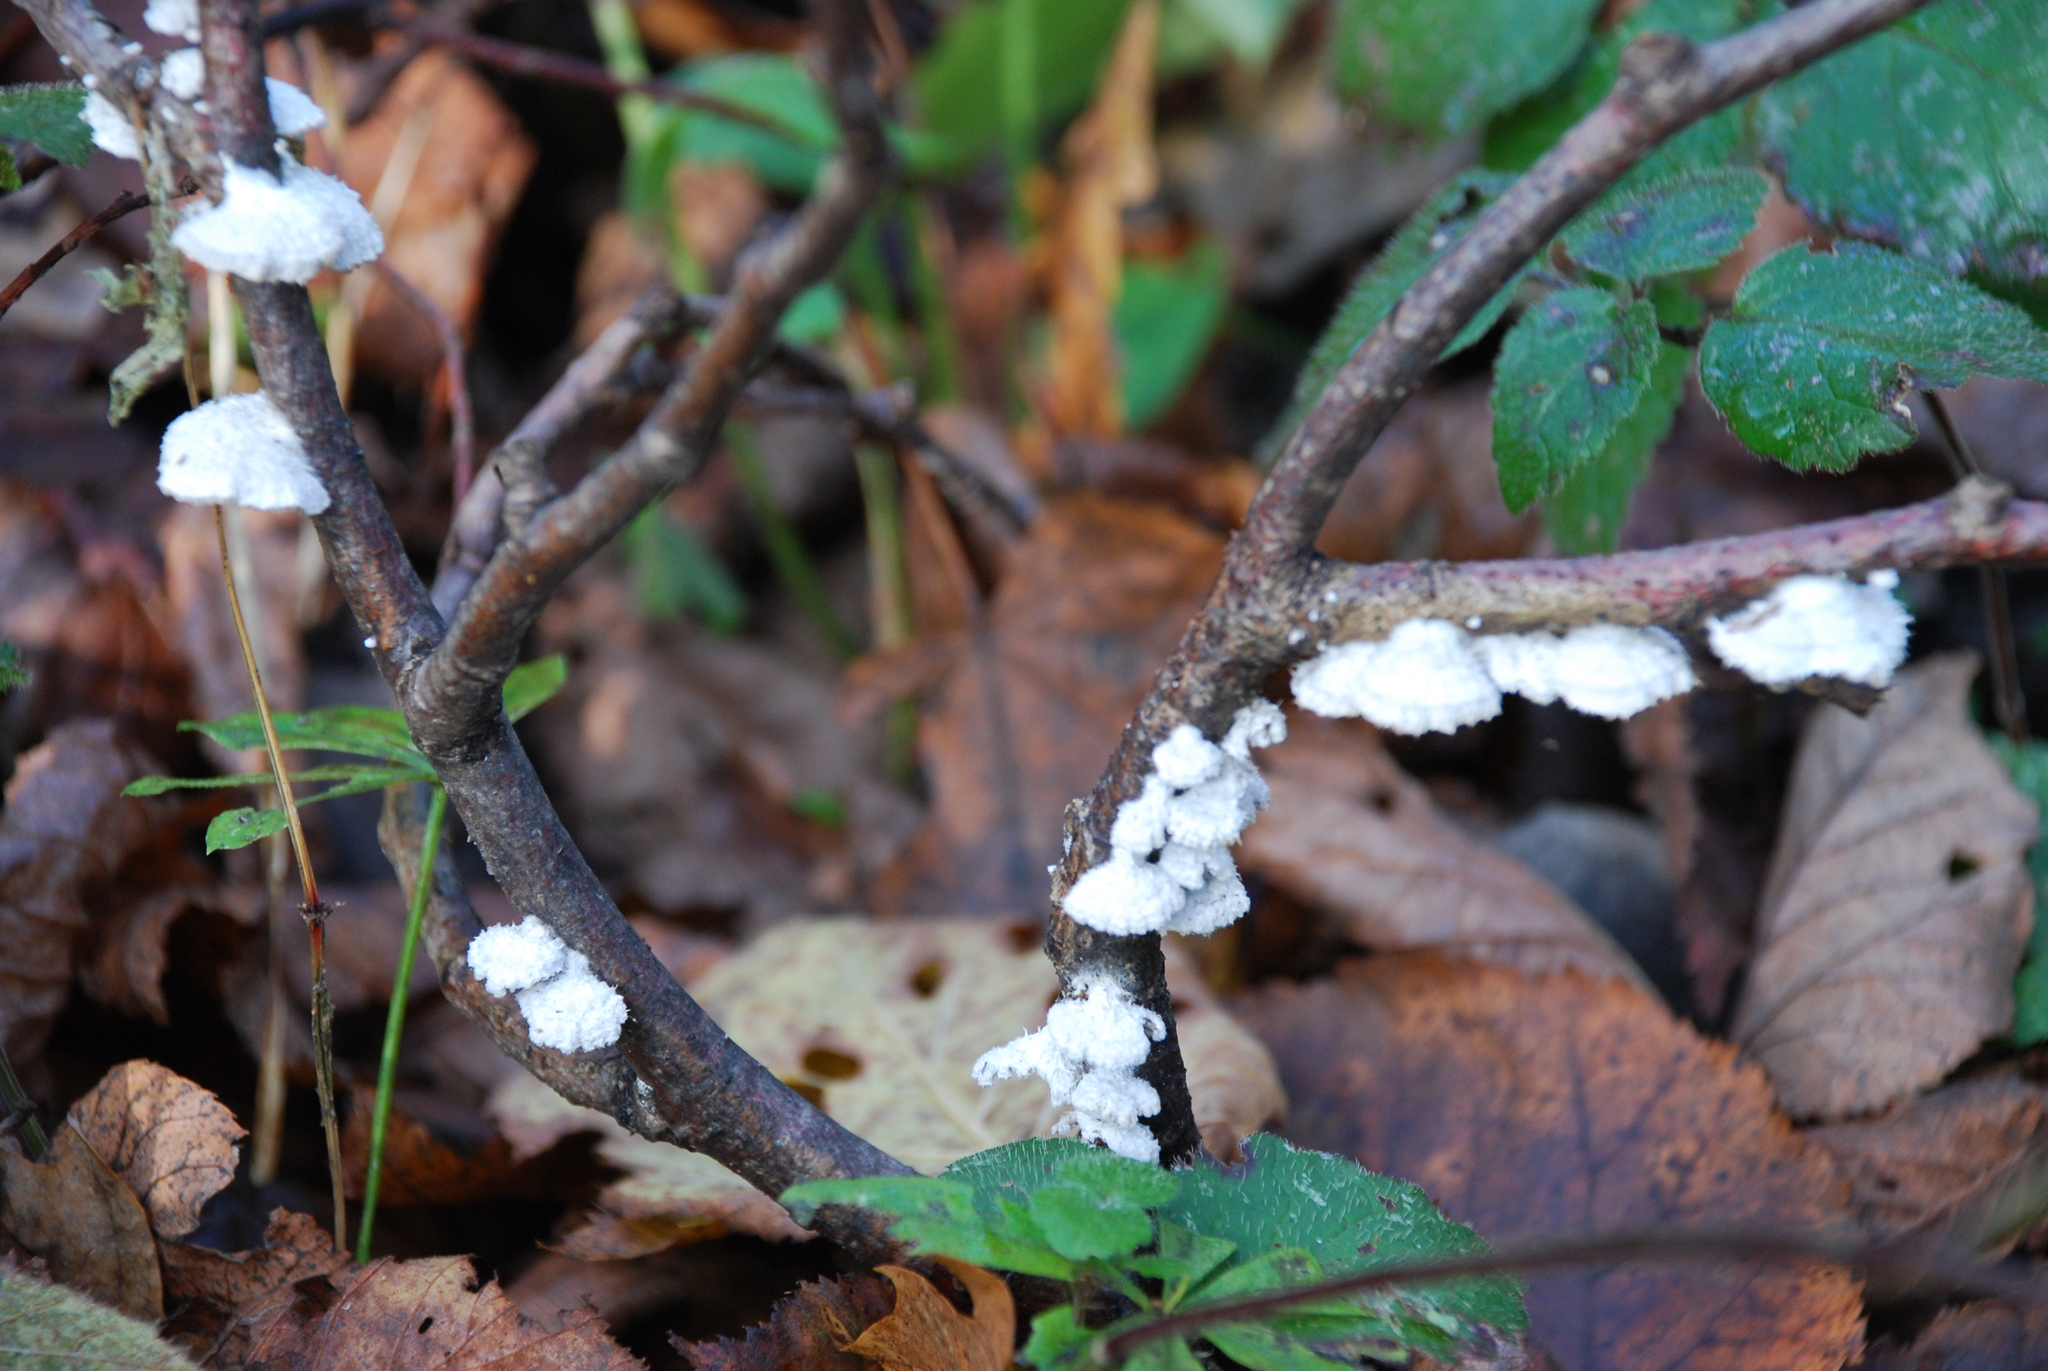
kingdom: Fungi
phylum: Basidiomycota
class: Agaricomycetes
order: Agaricales
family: Schizophyllaceae
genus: Schizophyllum
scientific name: Schizophyllum commune
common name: Common porecrust
